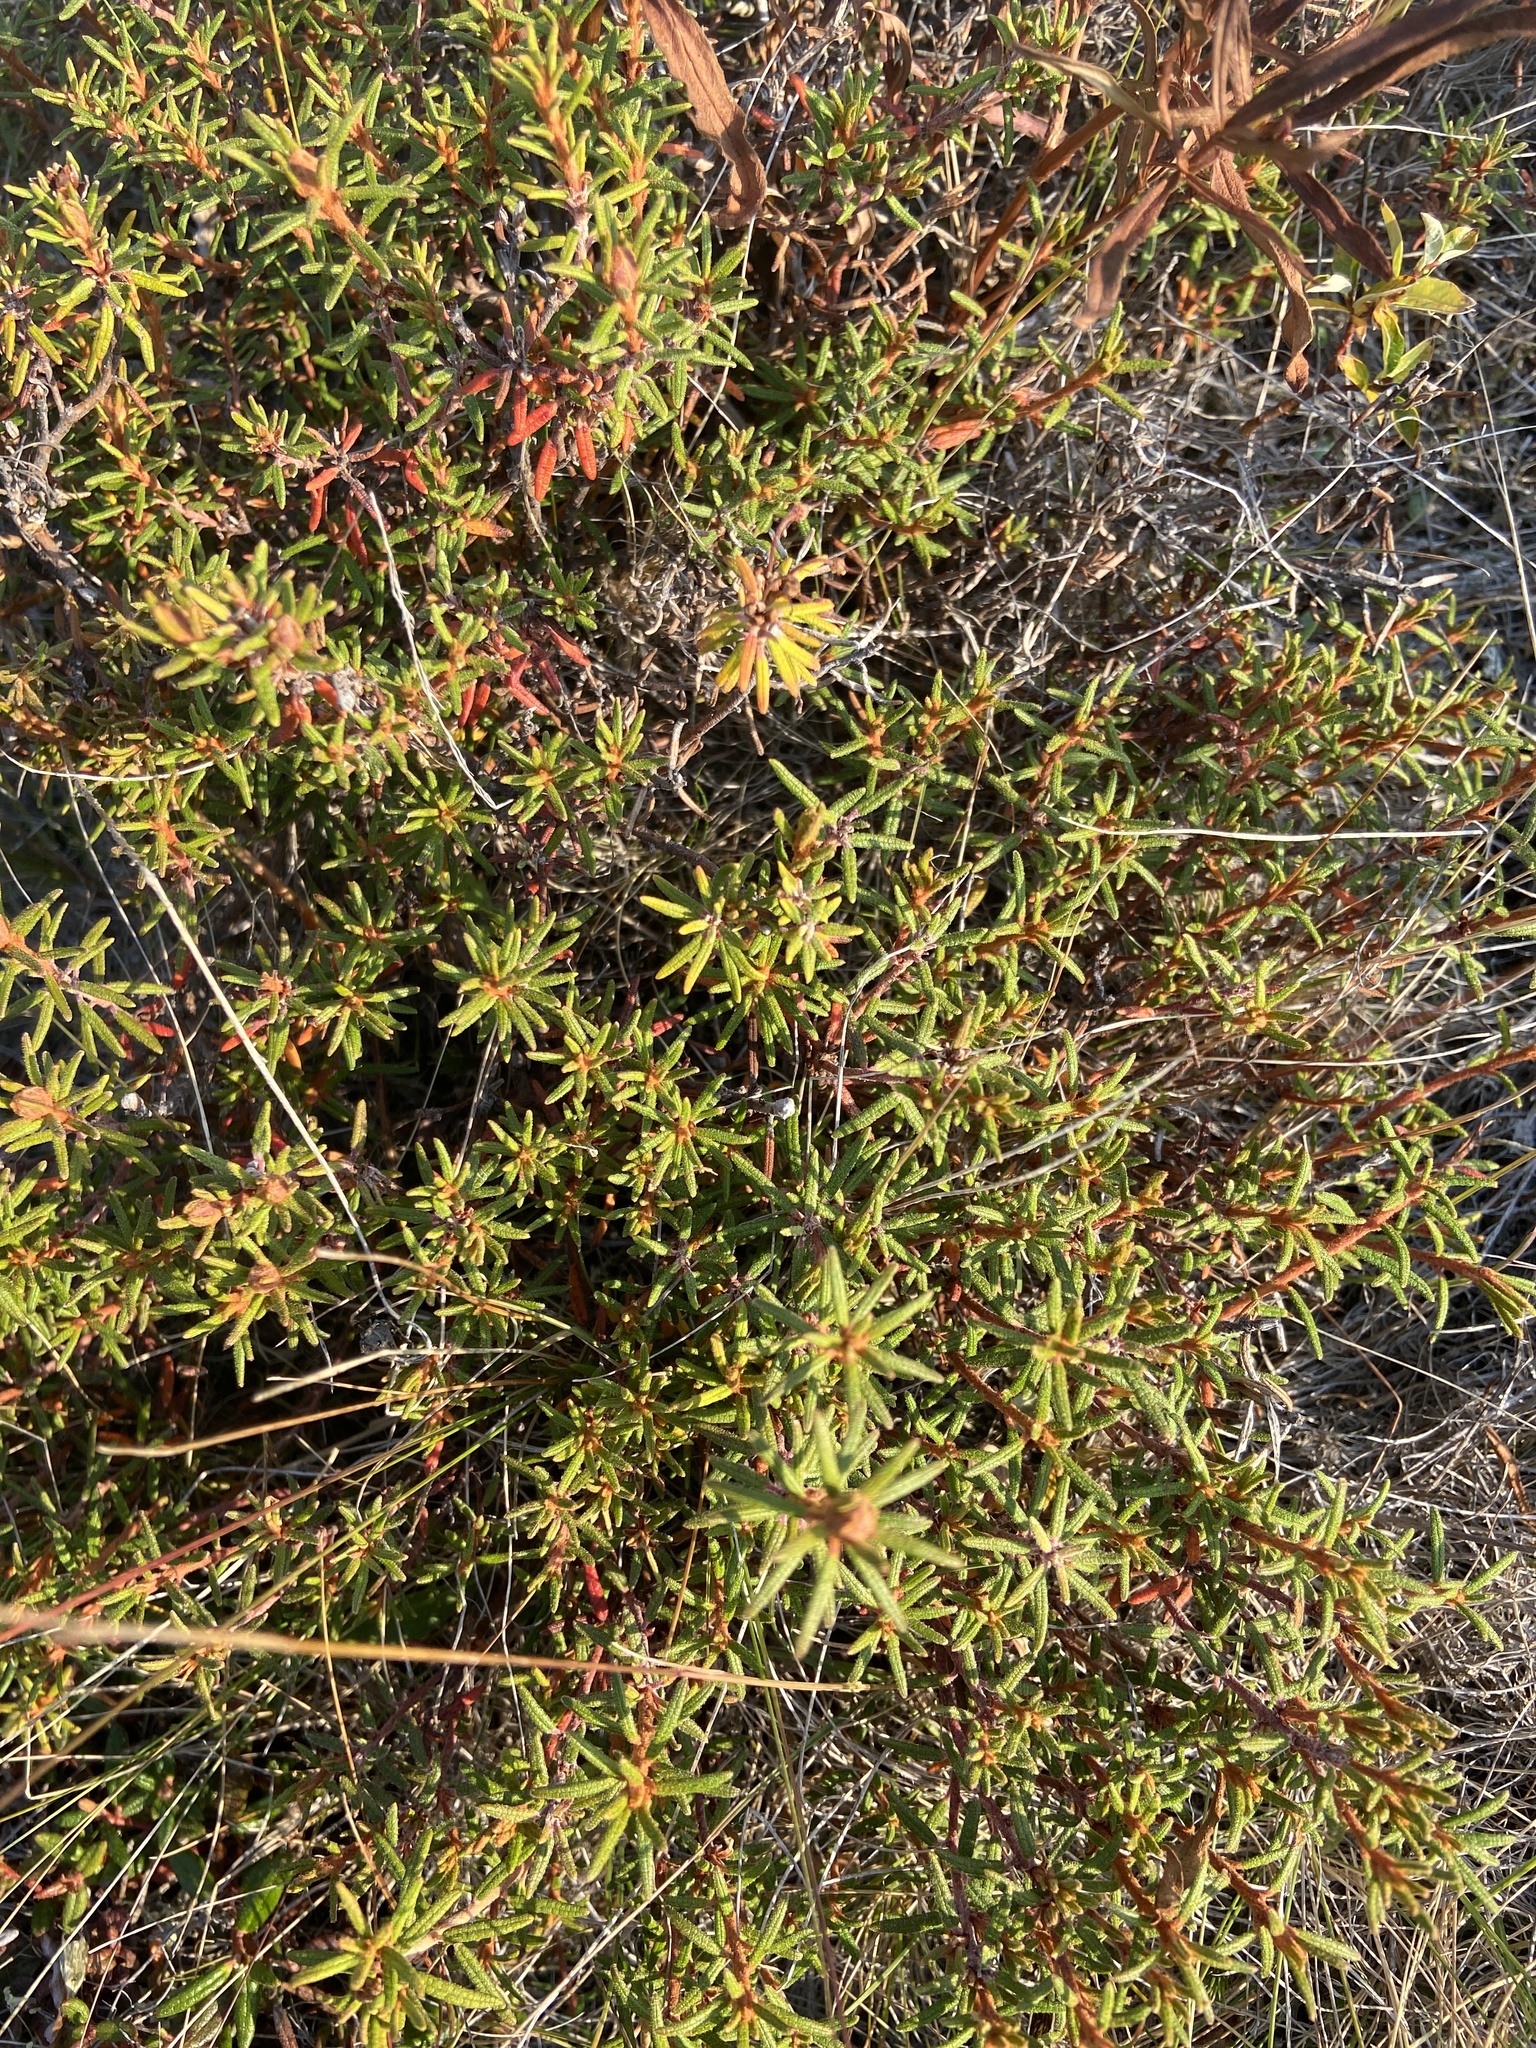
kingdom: Plantae
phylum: Tracheophyta
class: Magnoliopsida
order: Ericales
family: Ericaceae
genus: Rhododendron
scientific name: Rhododendron tomentosum
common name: Marsh labrador tea
